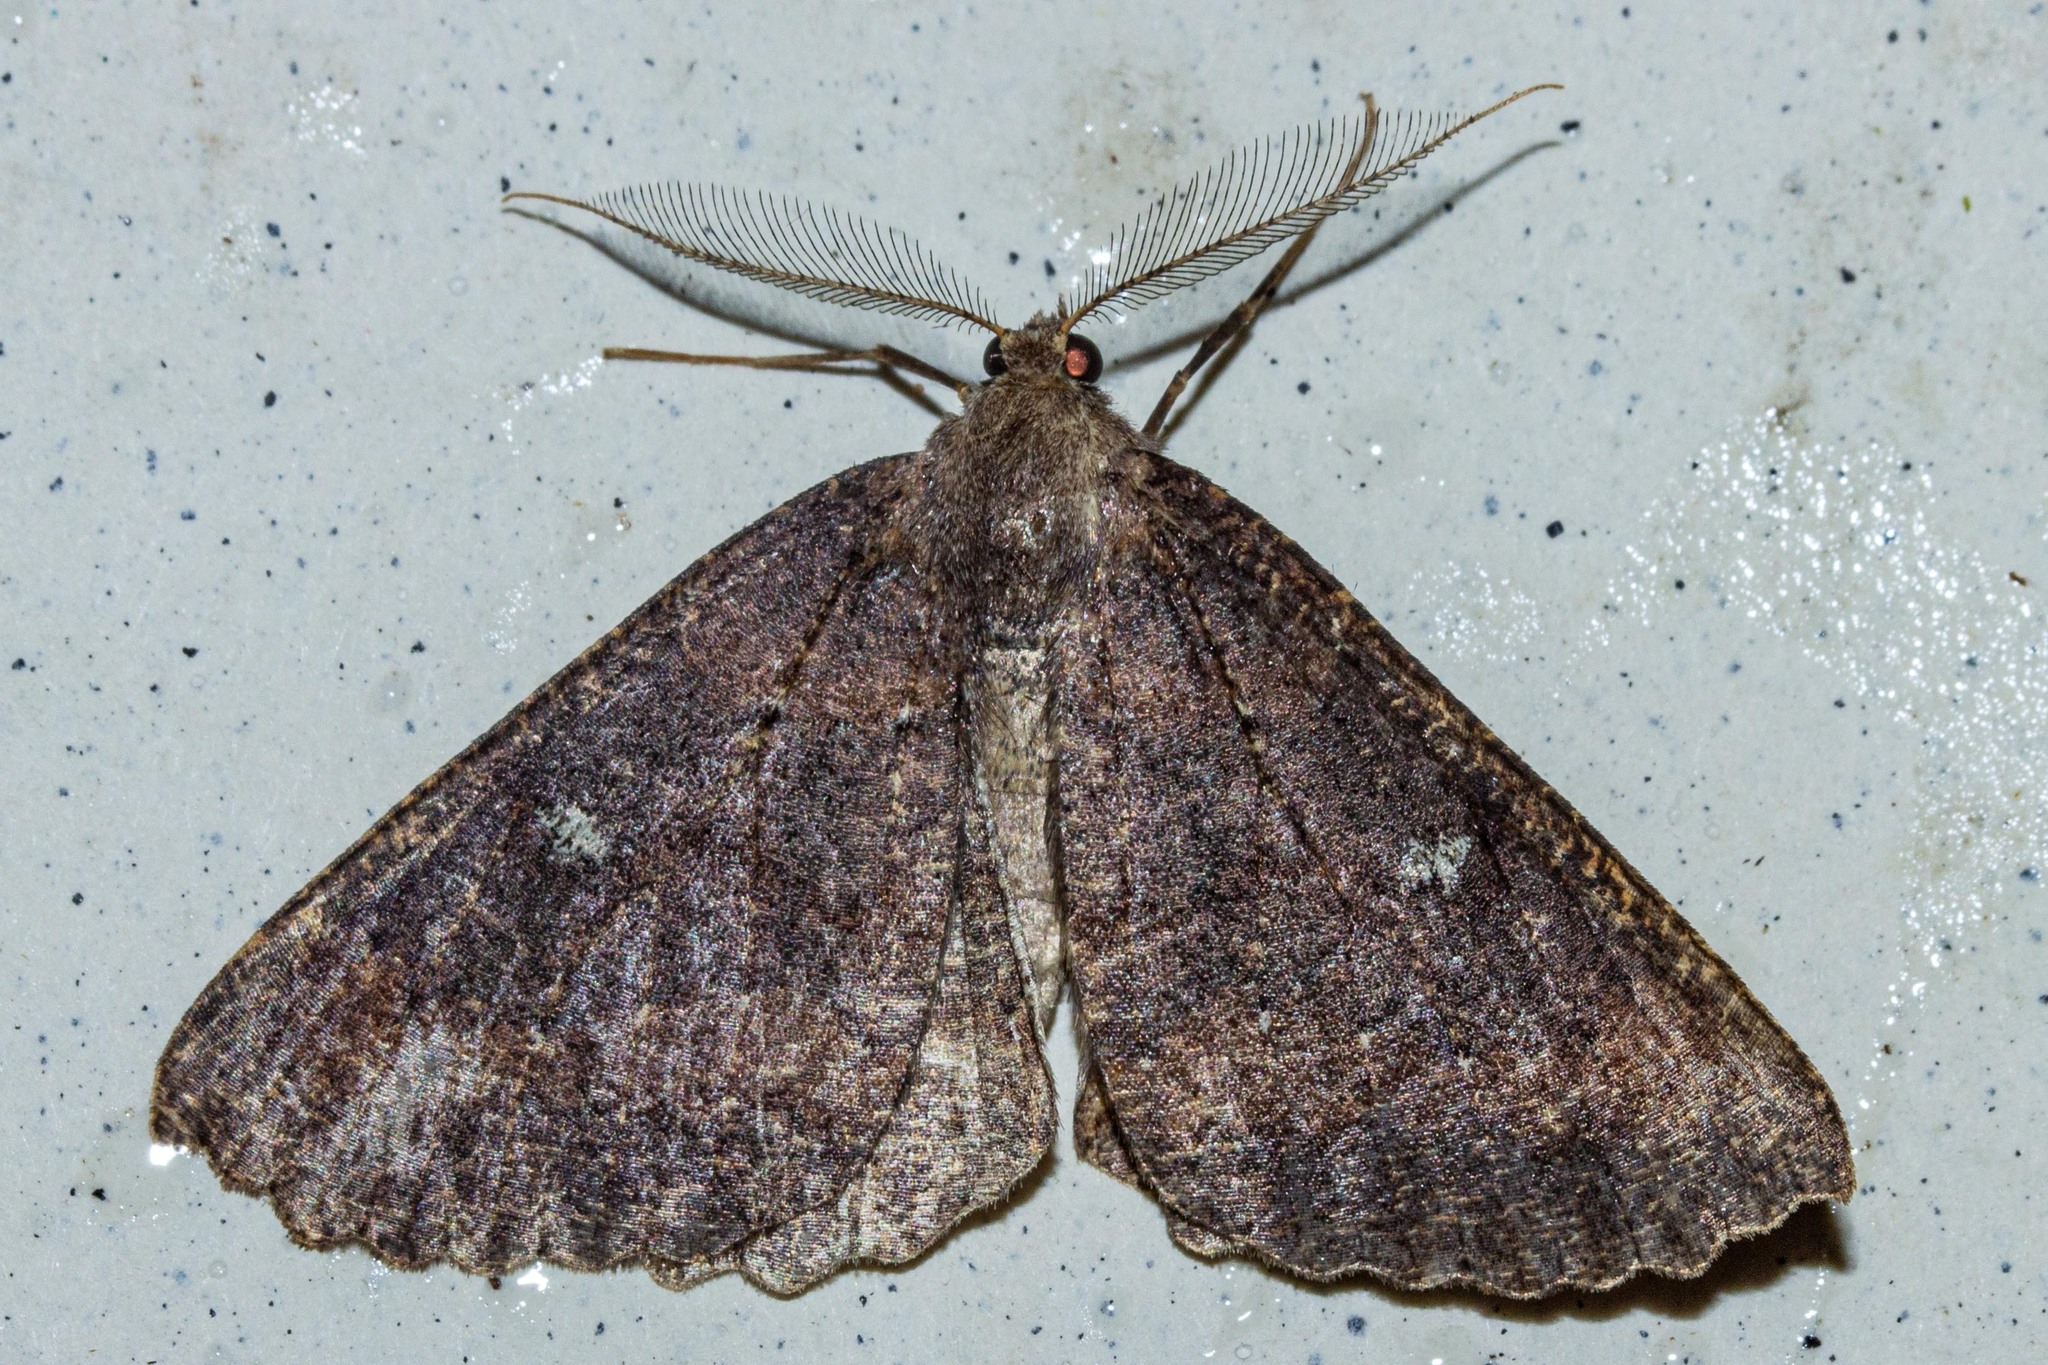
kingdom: Animalia
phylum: Arthropoda
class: Insecta
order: Lepidoptera
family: Geometridae
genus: Cleora
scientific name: Cleora scriptaria
